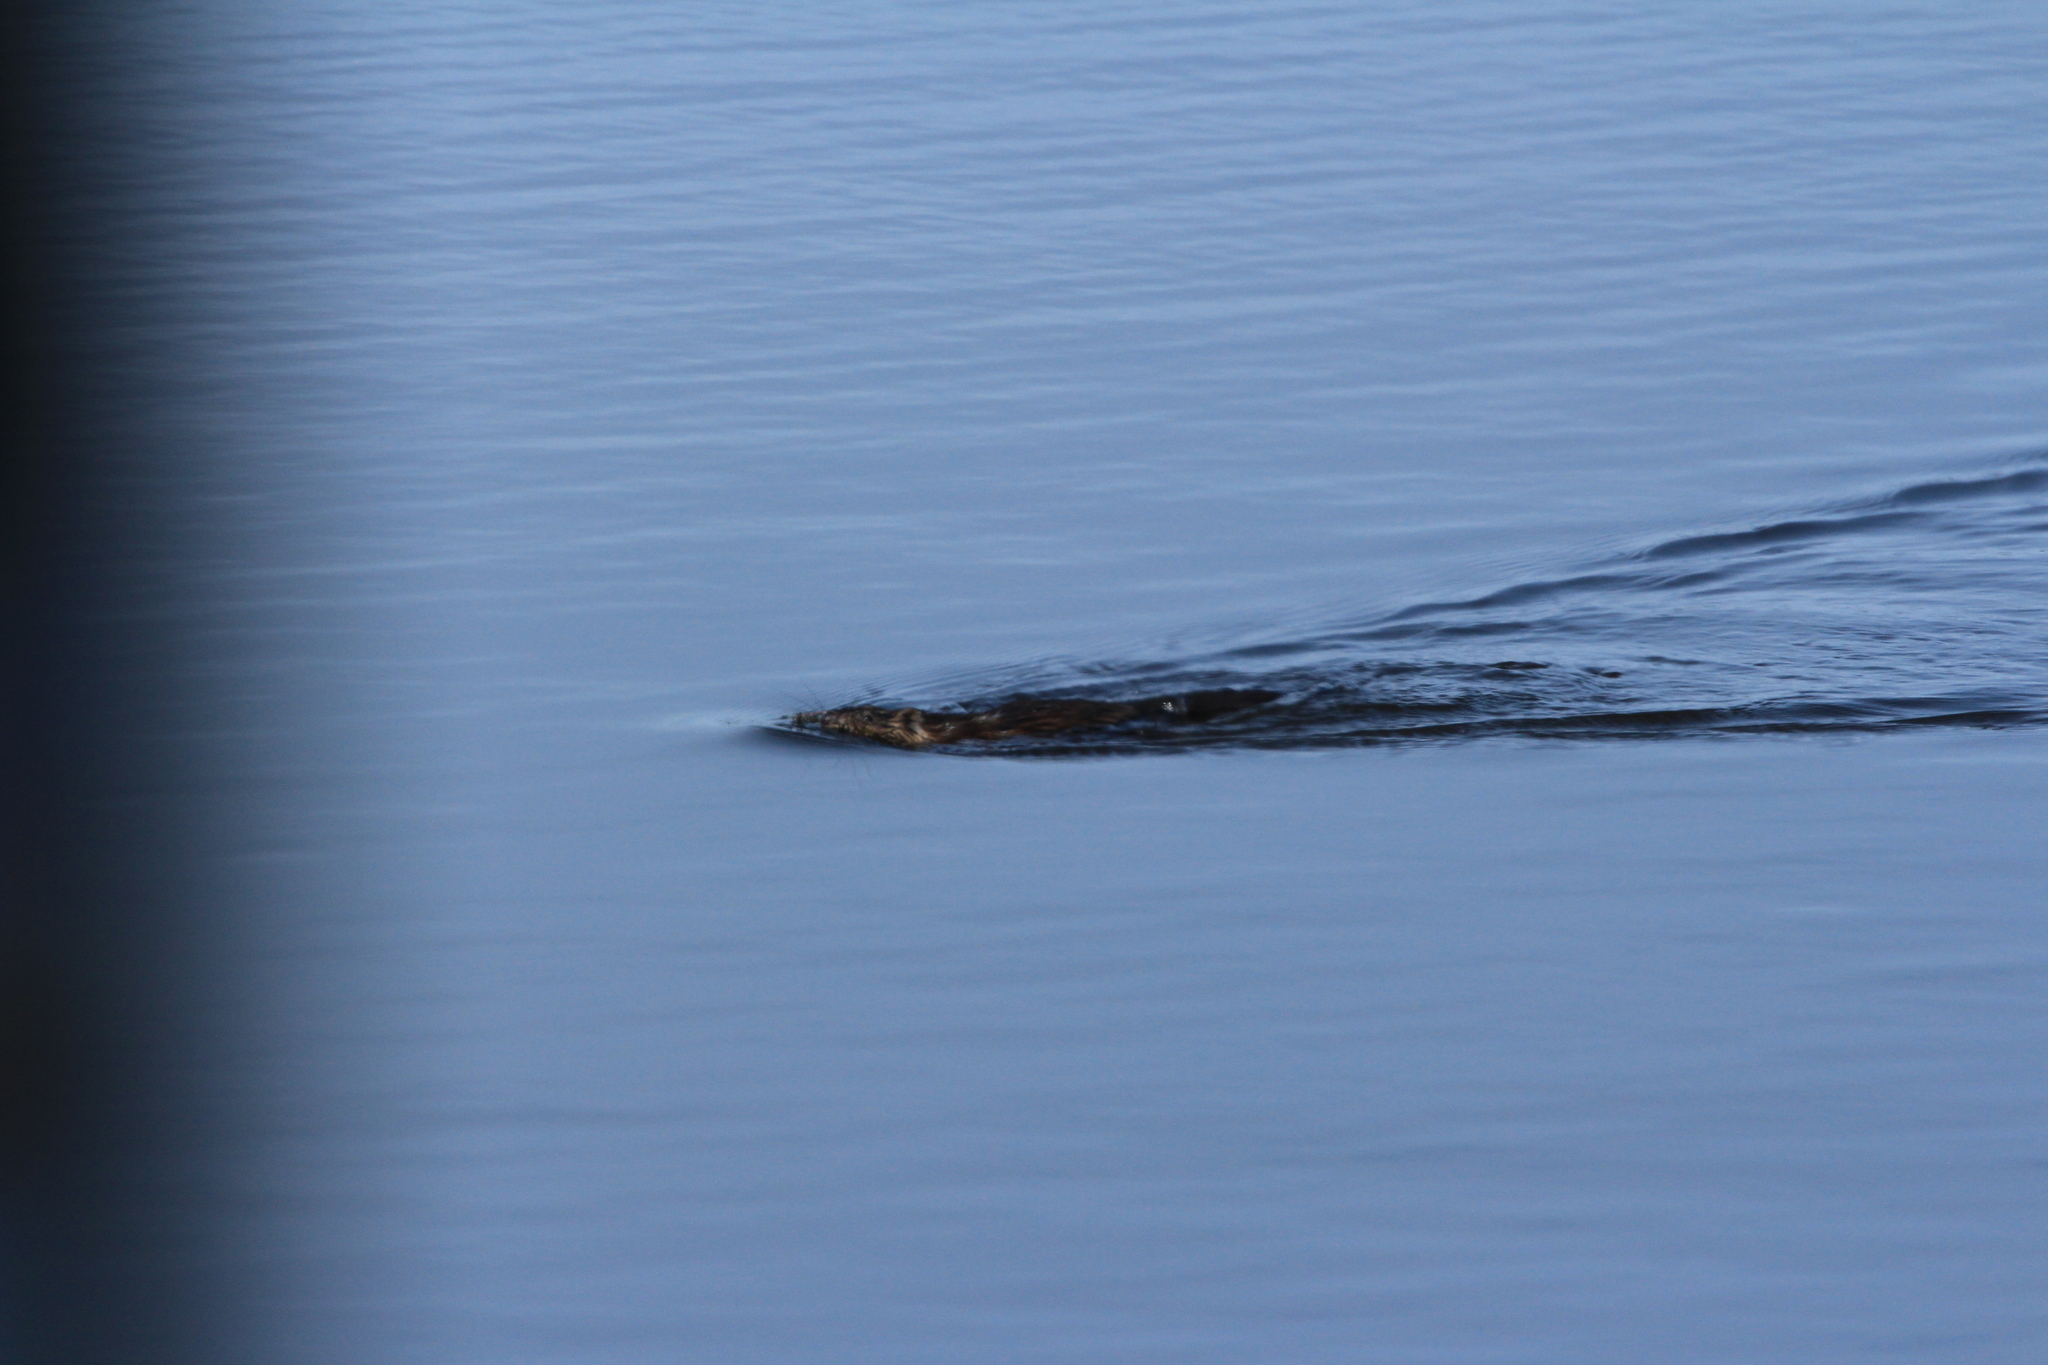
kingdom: Animalia
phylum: Chordata
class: Mammalia
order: Rodentia
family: Cricetidae
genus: Ondatra
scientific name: Ondatra zibethicus
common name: Muskrat
